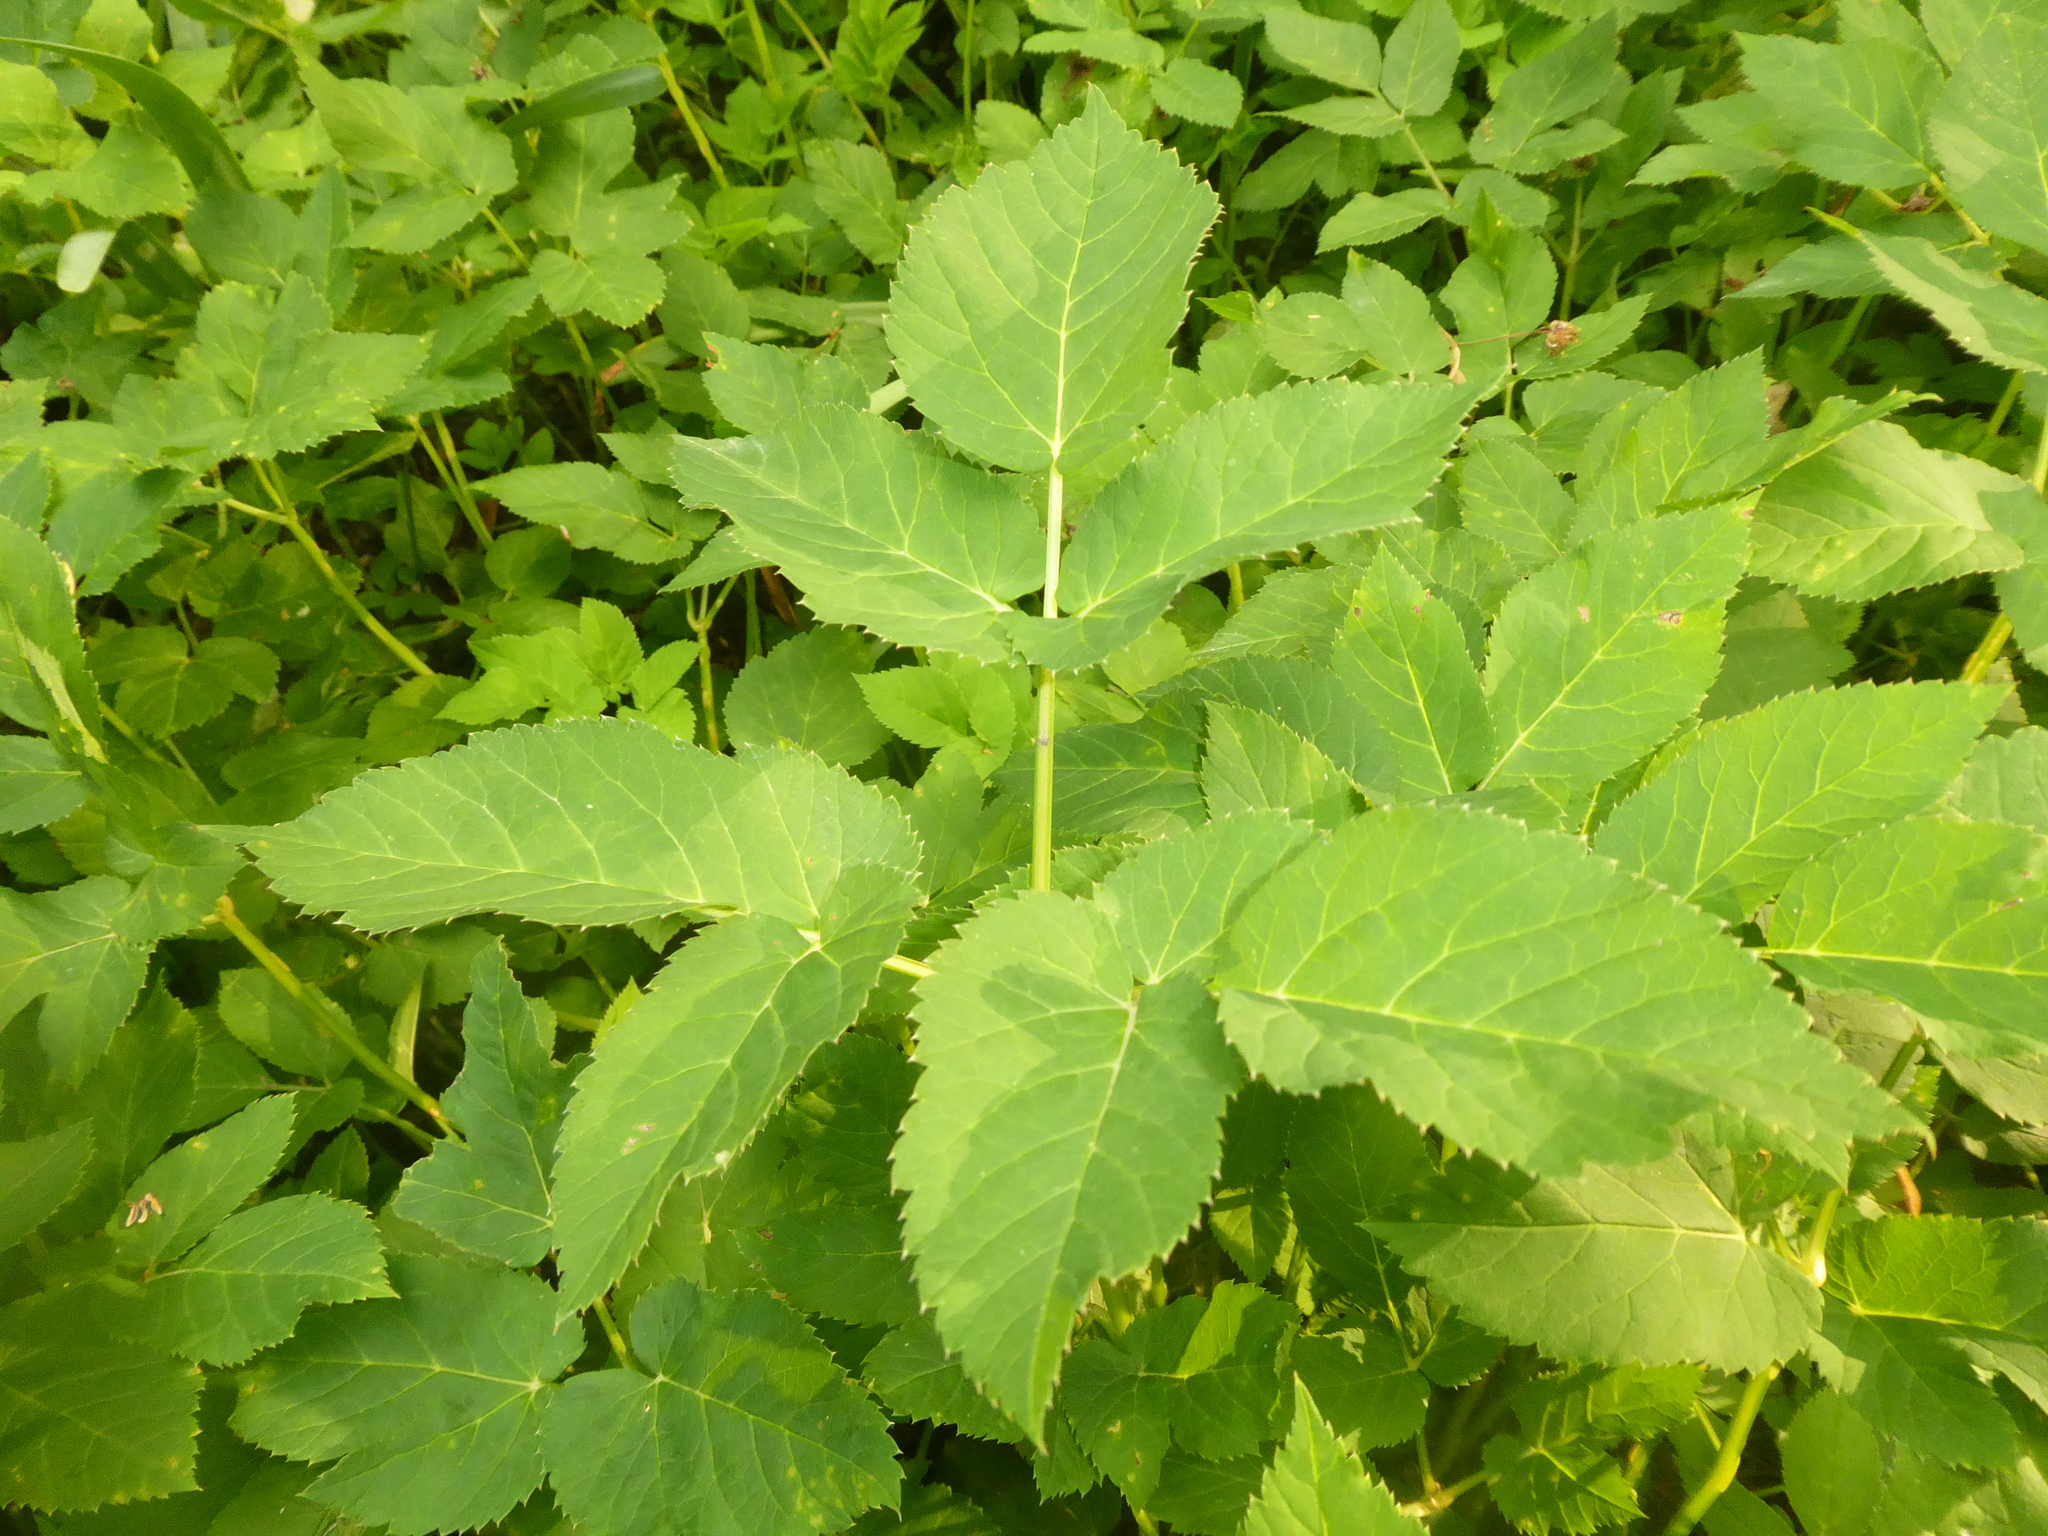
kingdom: Plantae
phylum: Tracheophyta
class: Magnoliopsida
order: Rosales
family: Urticaceae
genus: Urtica
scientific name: Urtica dioica
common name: Common nettle
